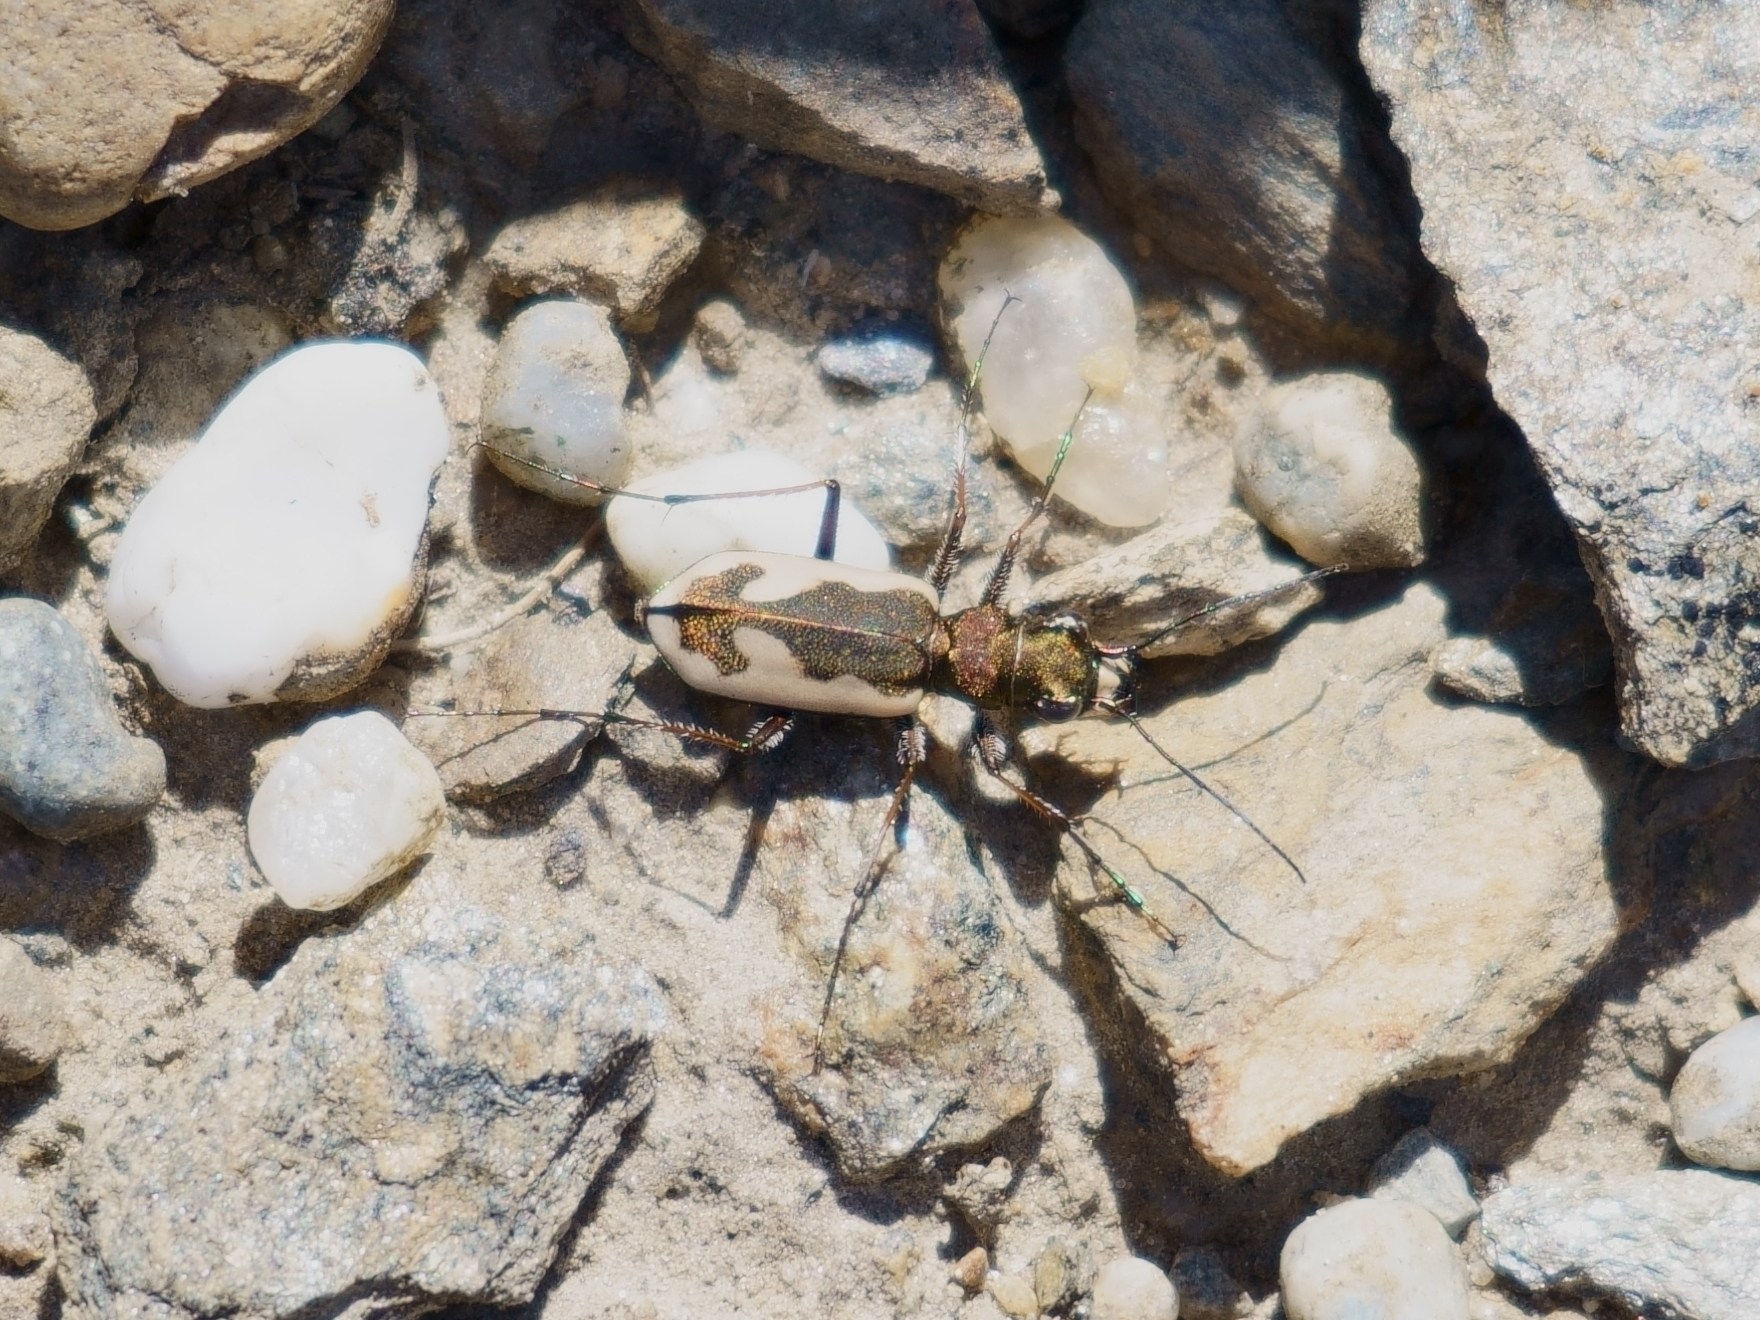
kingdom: Animalia
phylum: Arthropoda
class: Insecta
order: Coleoptera
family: Carabidae
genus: Neocicindela
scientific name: Neocicindela latecincta
